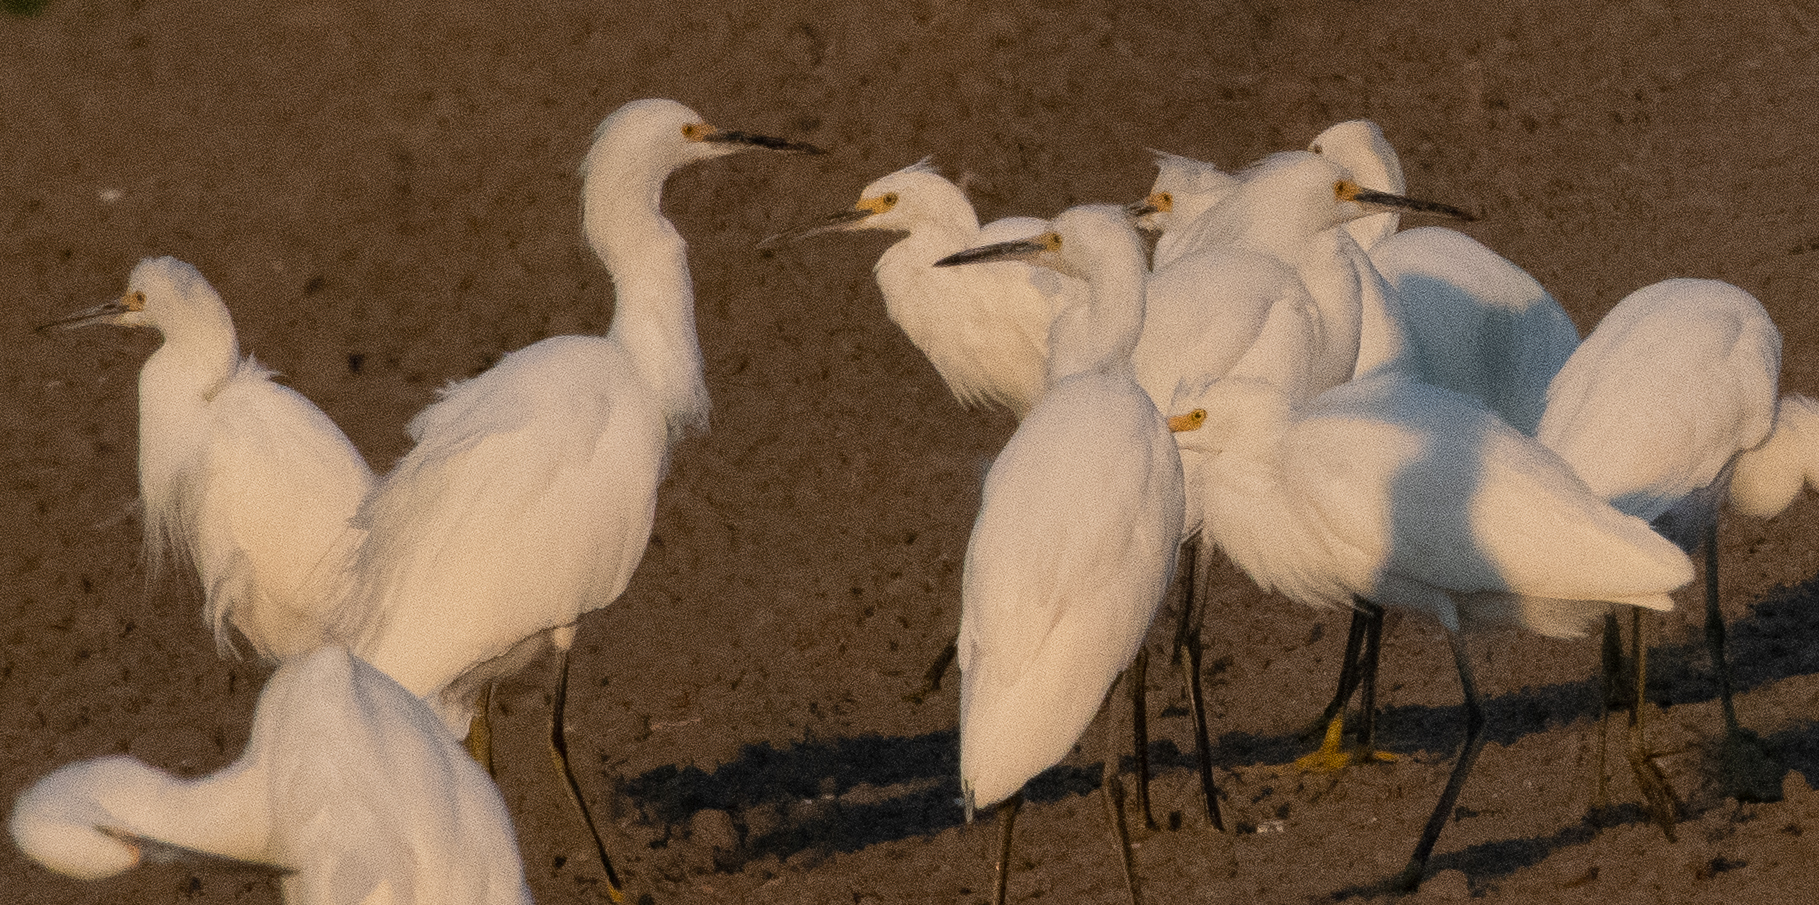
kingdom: Animalia
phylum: Chordata
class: Aves
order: Pelecaniformes
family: Ardeidae
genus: Egretta
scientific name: Egretta thula
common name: Snowy egret
